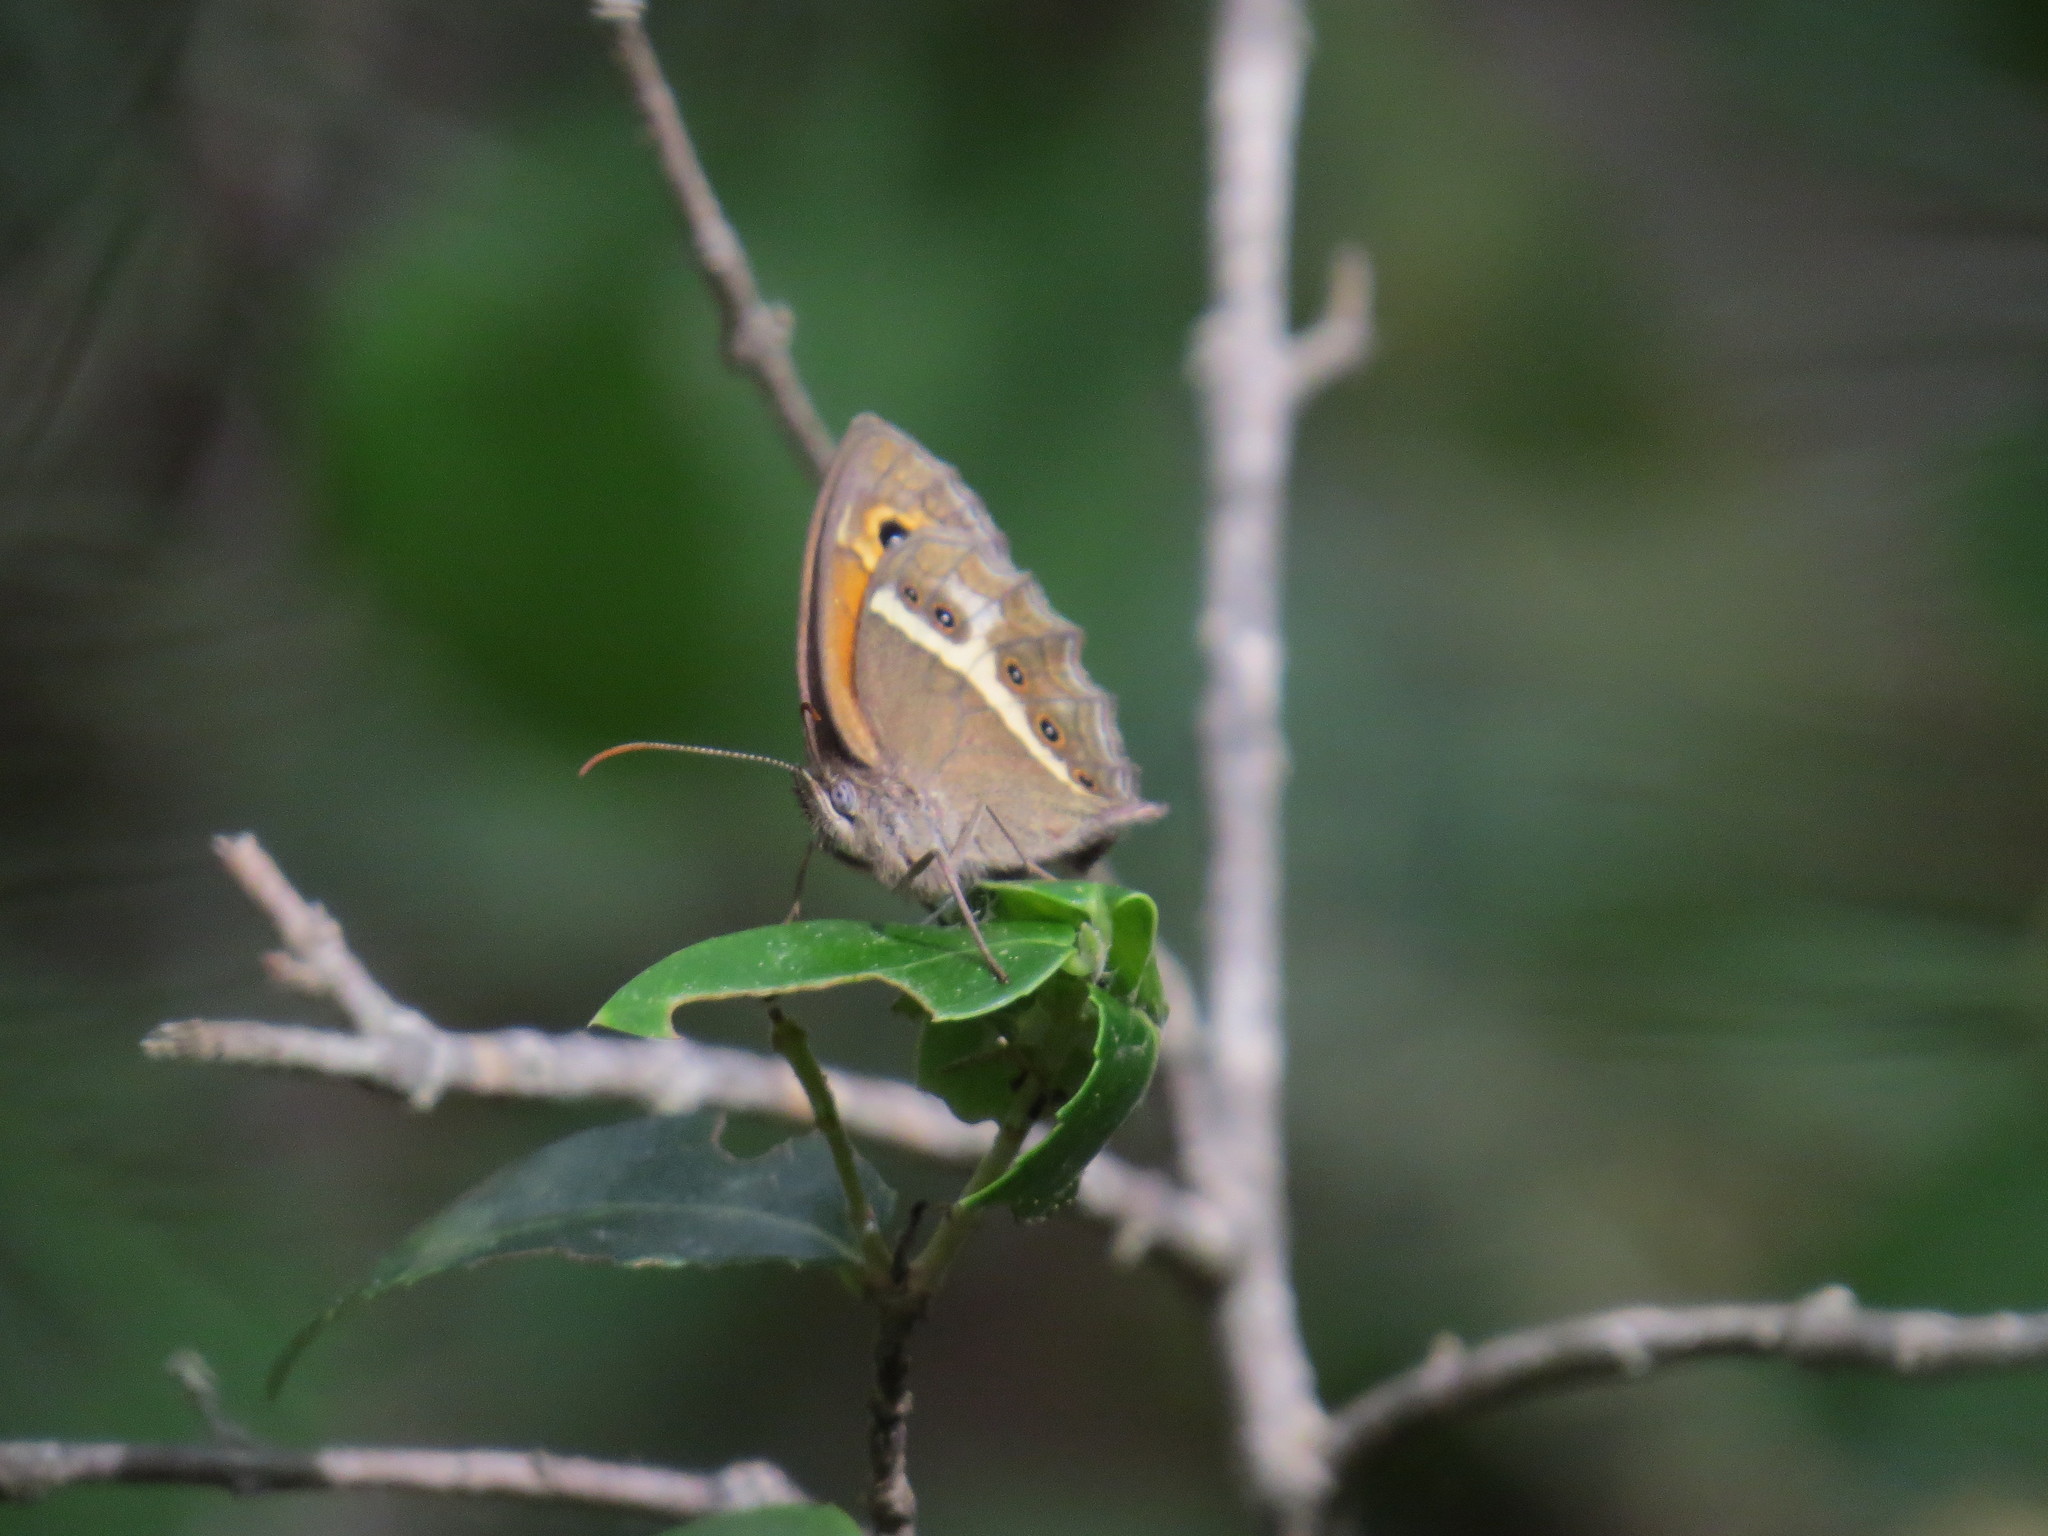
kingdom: Animalia
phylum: Arthropoda
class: Insecta
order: Lepidoptera
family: Nymphalidae
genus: Pyronia
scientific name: Pyronia bathseba
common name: Spanish gatekeeper
